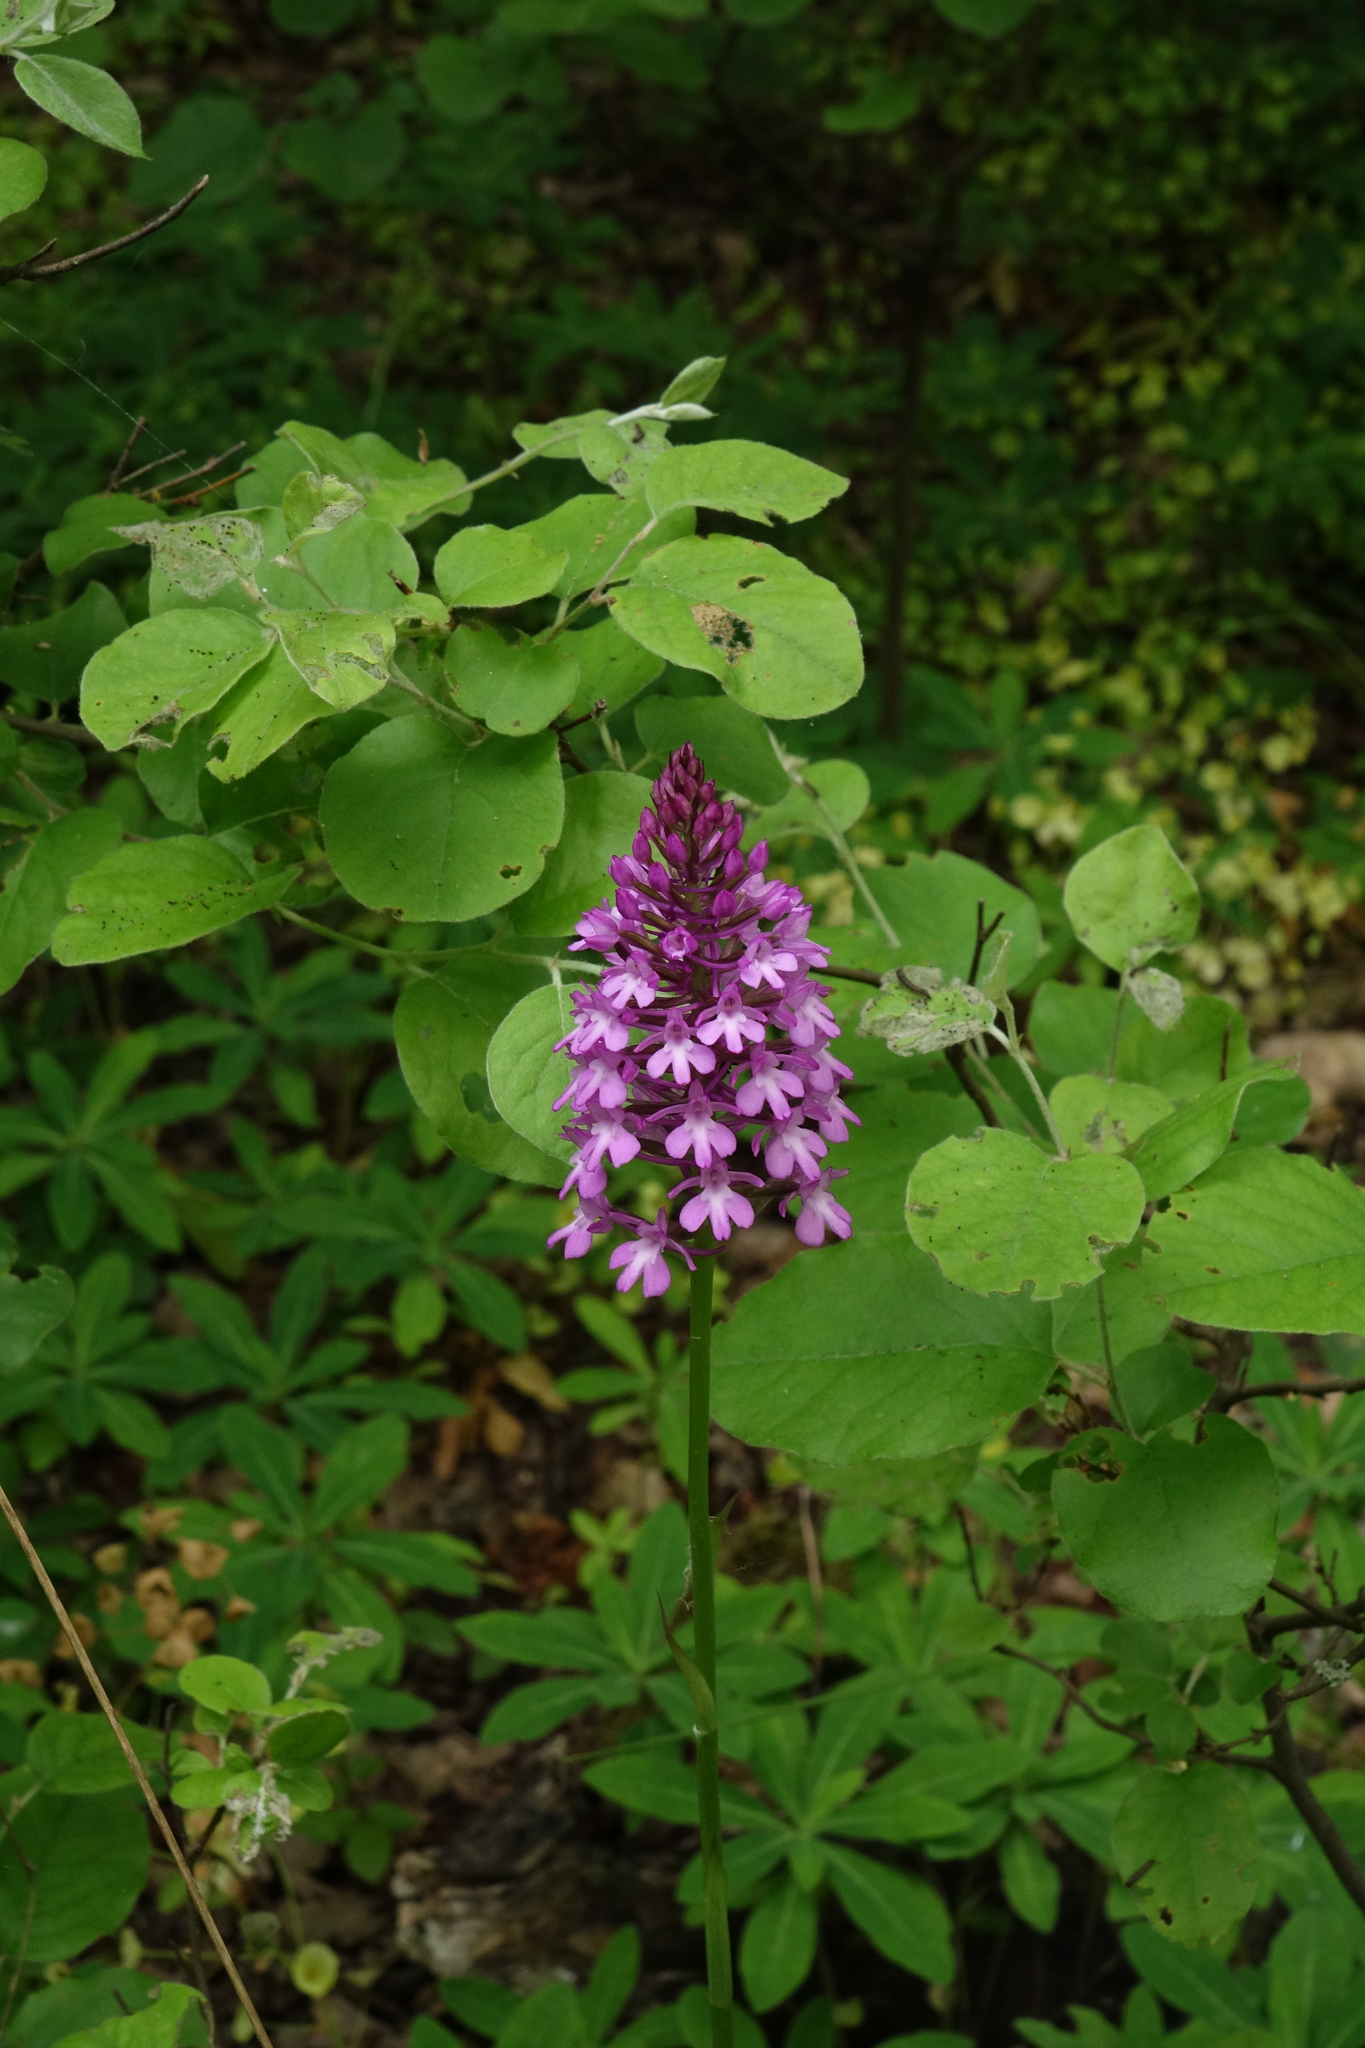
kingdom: Plantae
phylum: Tracheophyta
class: Liliopsida
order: Asparagales
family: Orchidaceae
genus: Anacamptis
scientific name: Anacamptis pyramidalis
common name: Pyramidal orchid
